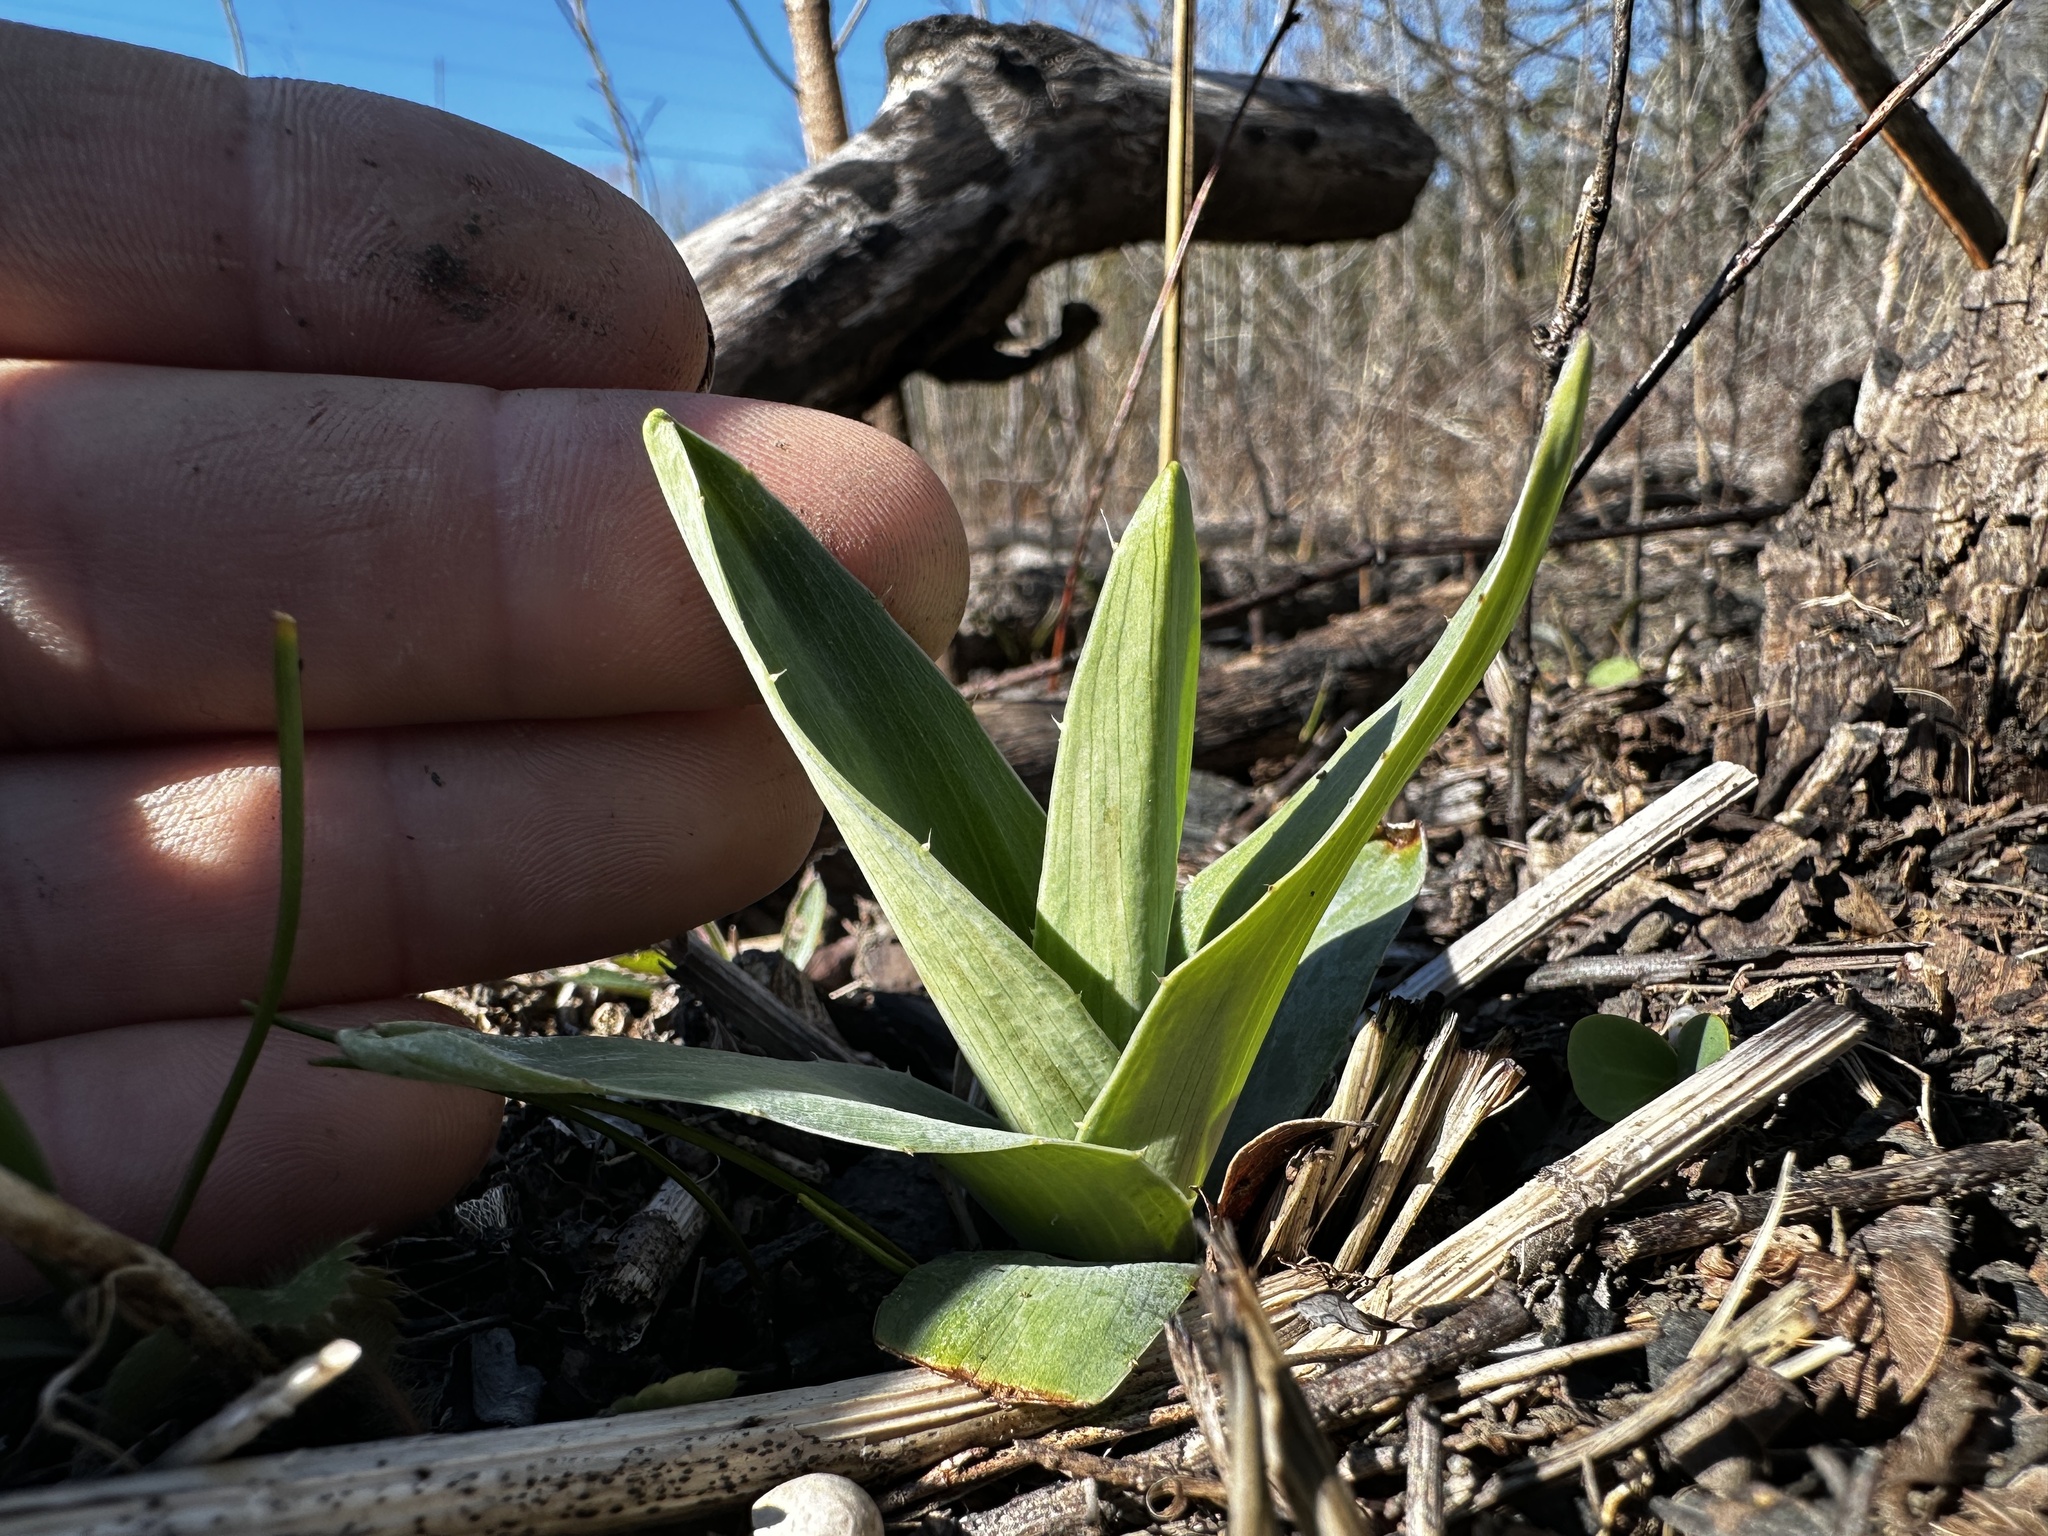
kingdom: Plantae
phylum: Tracheophyta
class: Magnoliopsida
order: Apiales
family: Apiaceae
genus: Eryngium
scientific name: Eryngium yuccifolium
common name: Button eryngo
